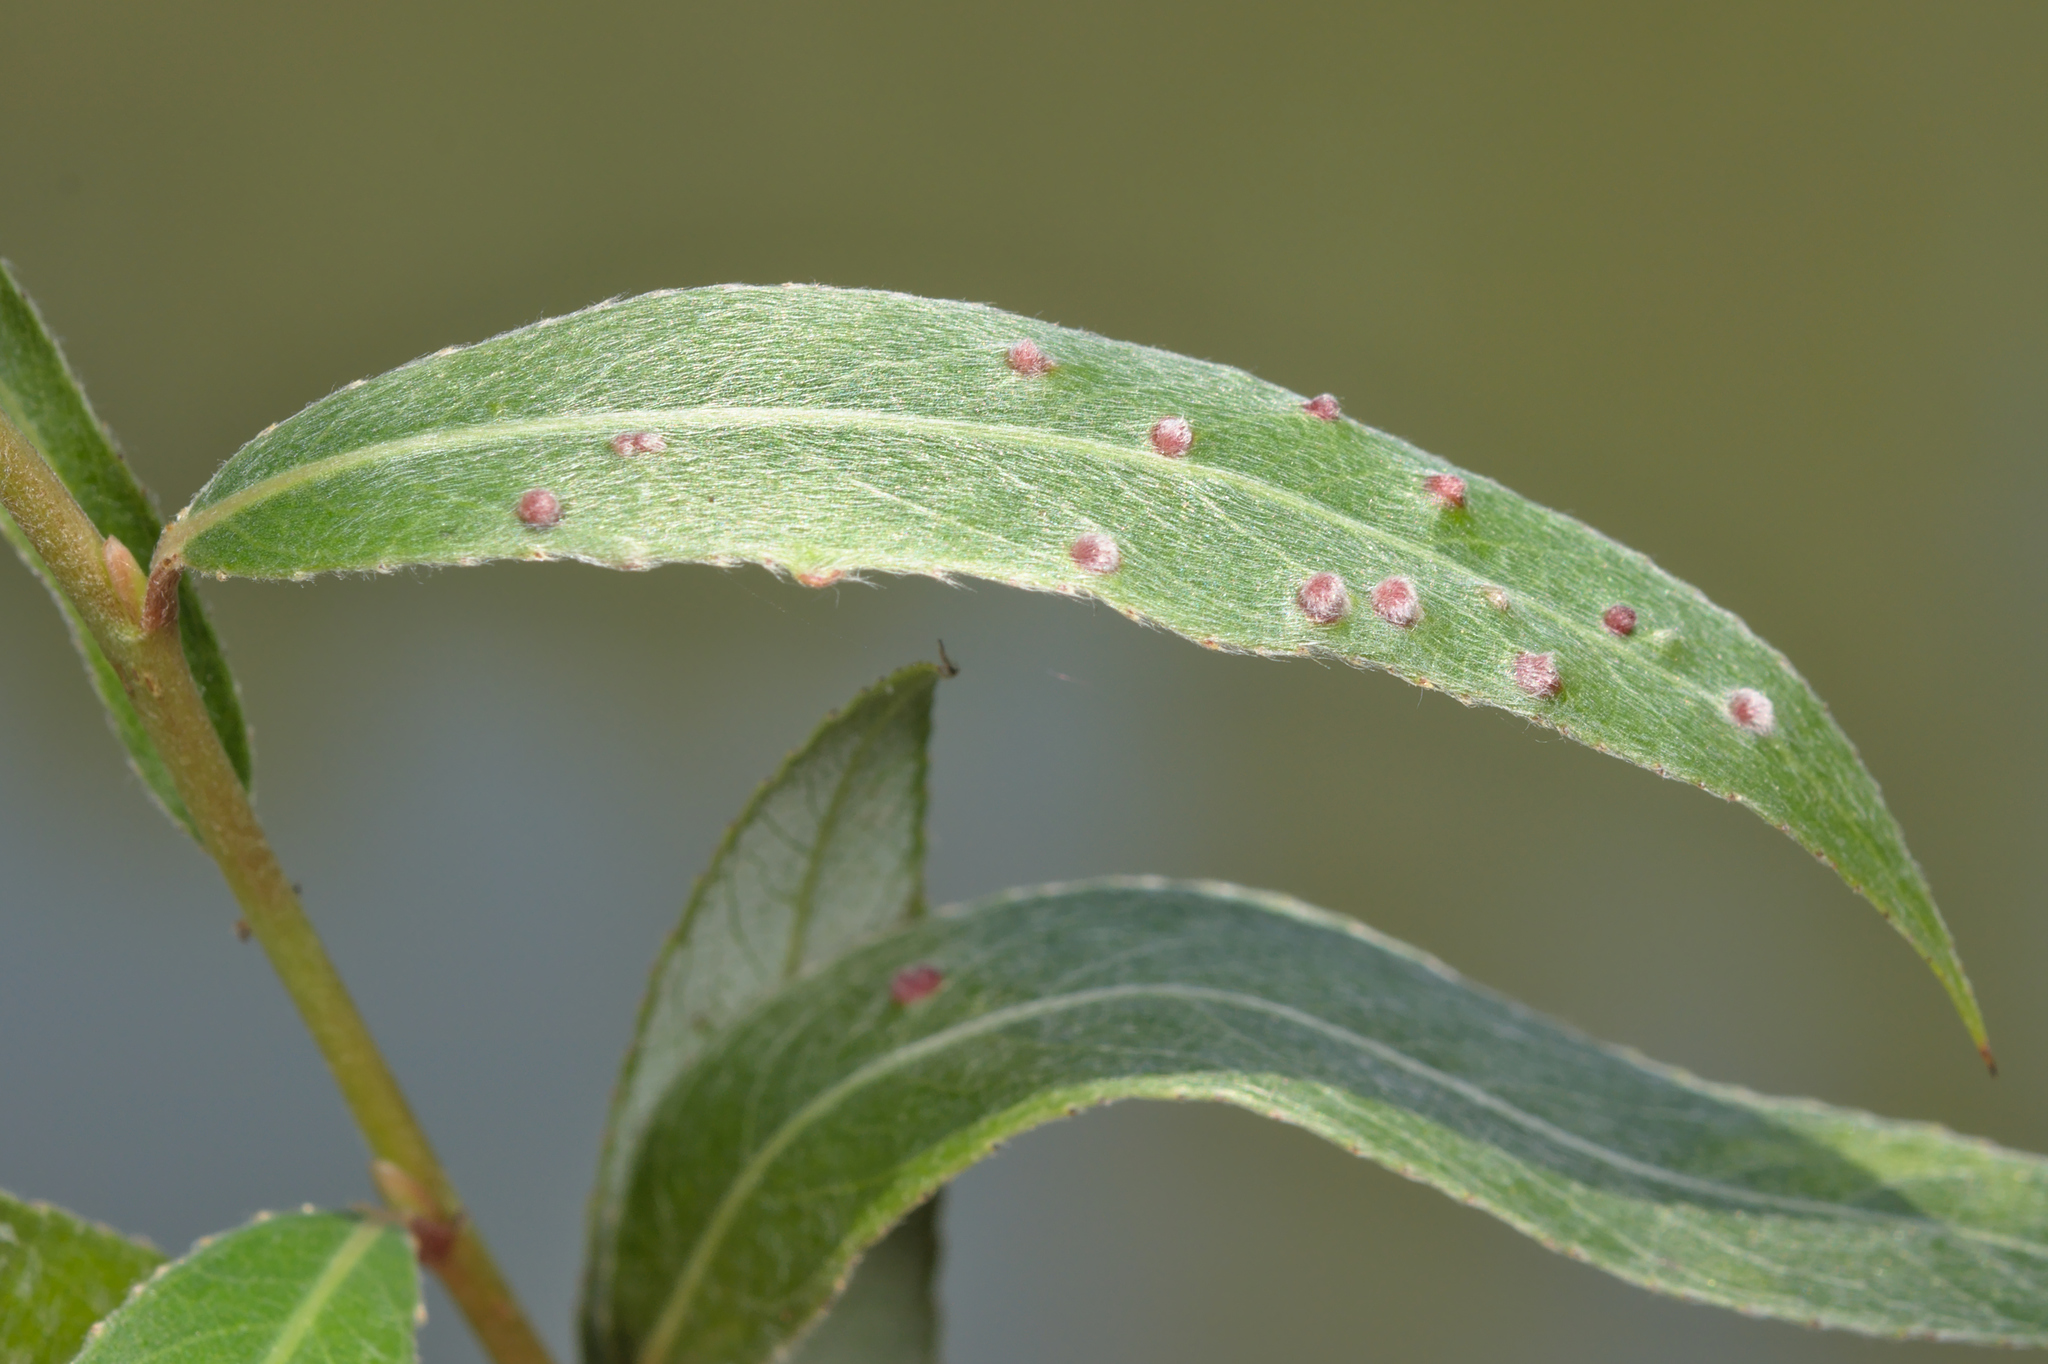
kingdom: Animalia
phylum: Arthropoda
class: Arachnida
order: Trombidiformes
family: Eriophyidae
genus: Aculus
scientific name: Aculus tetanothrix
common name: Willow bead gall mite
